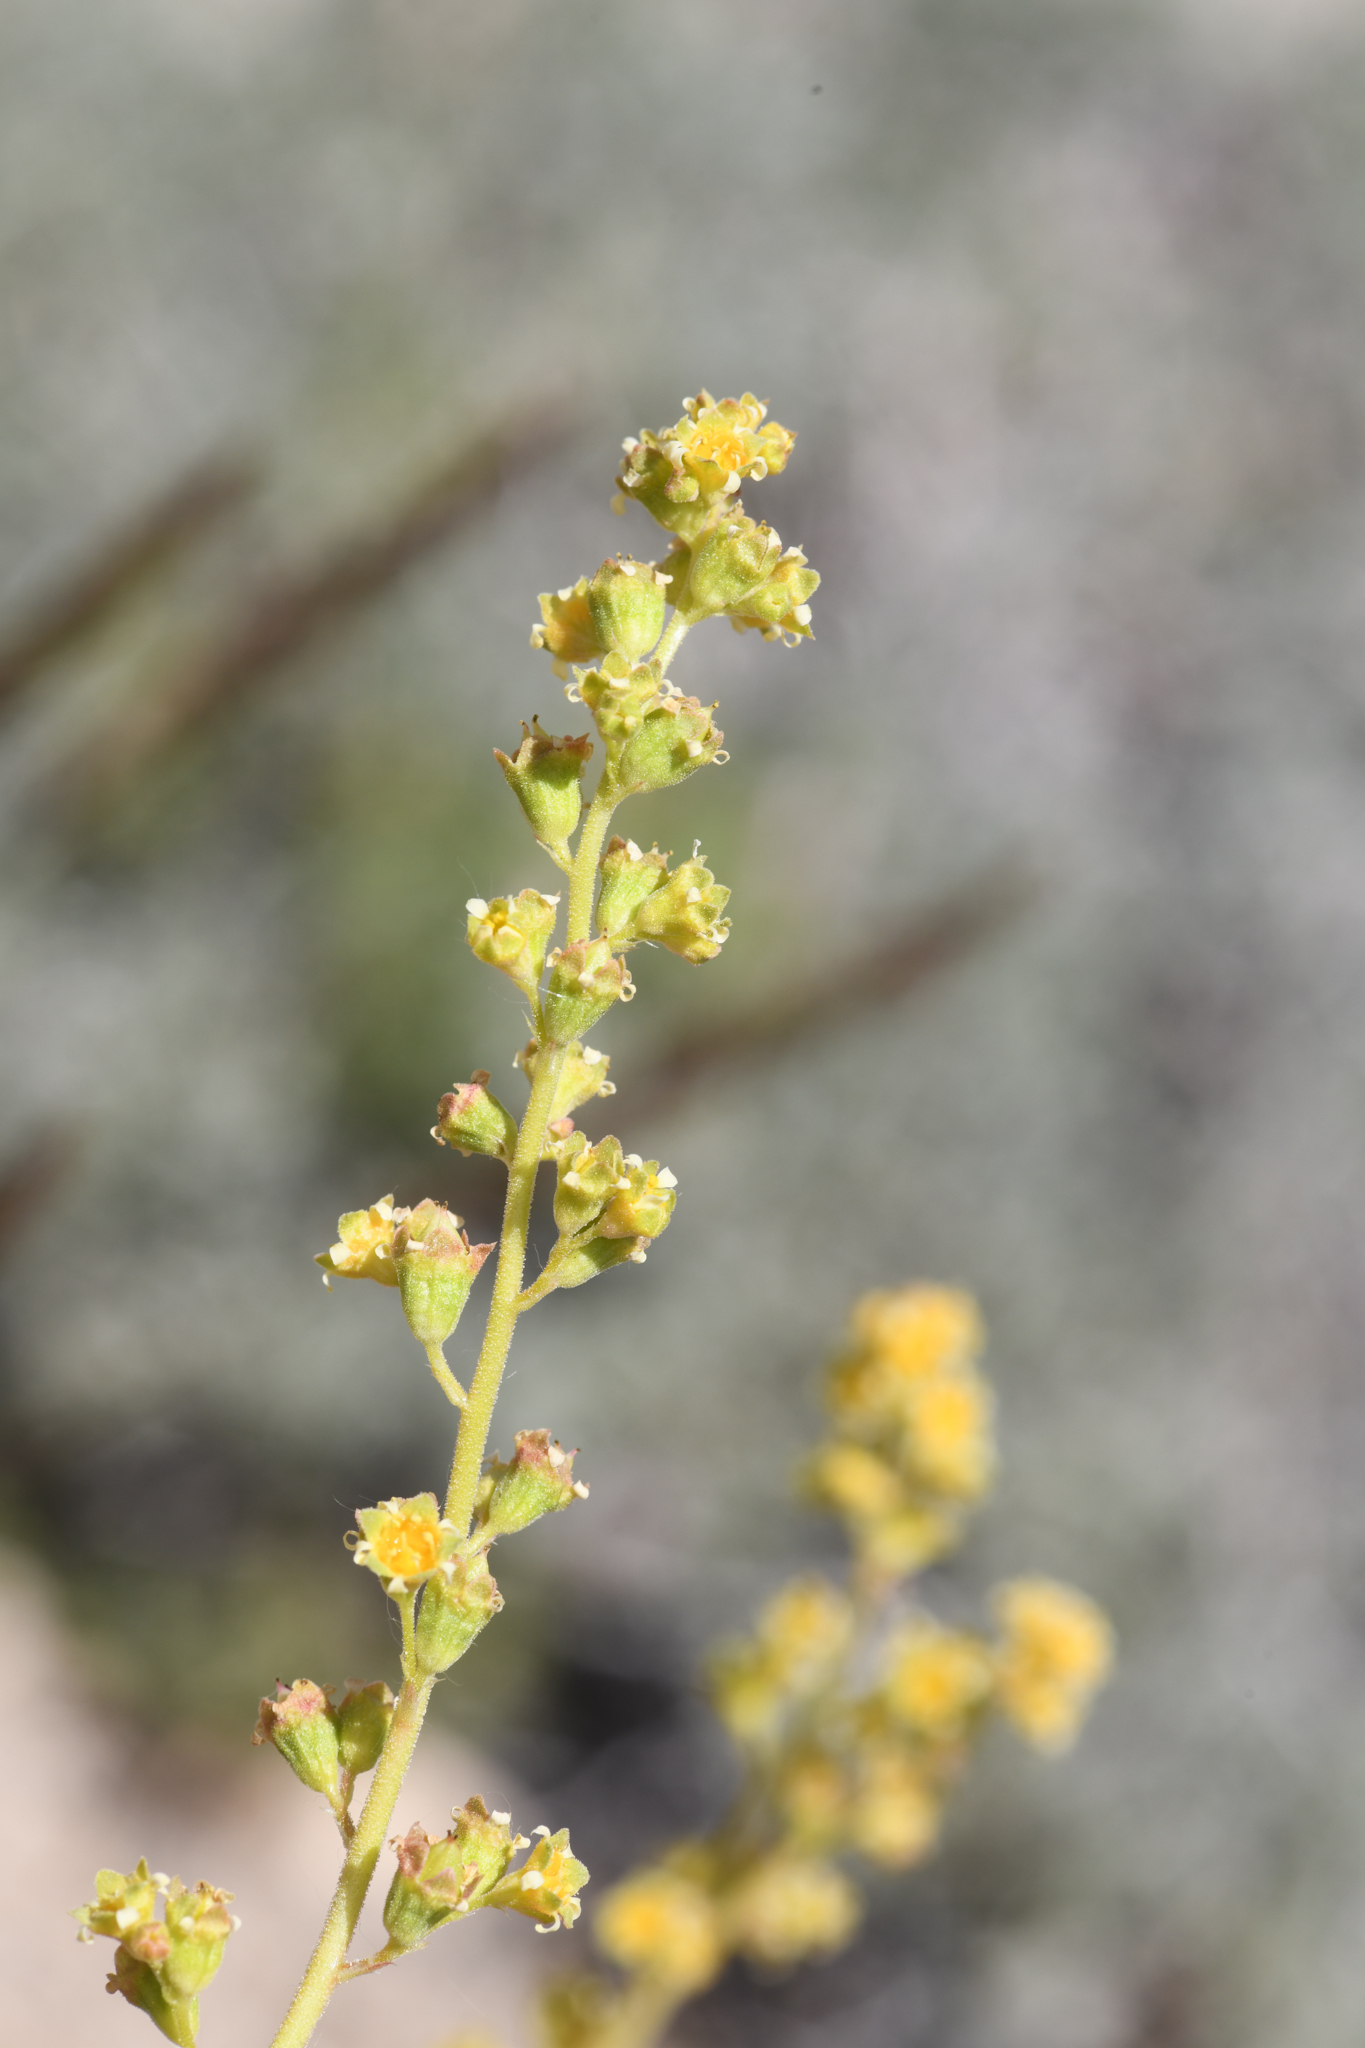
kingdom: Plantae
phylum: Tracheophyta
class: Magnoliopsida
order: Saxifragales
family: Saxifragaceae
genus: Heuchera
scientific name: Heuchera parvifolia
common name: Common alumroot
